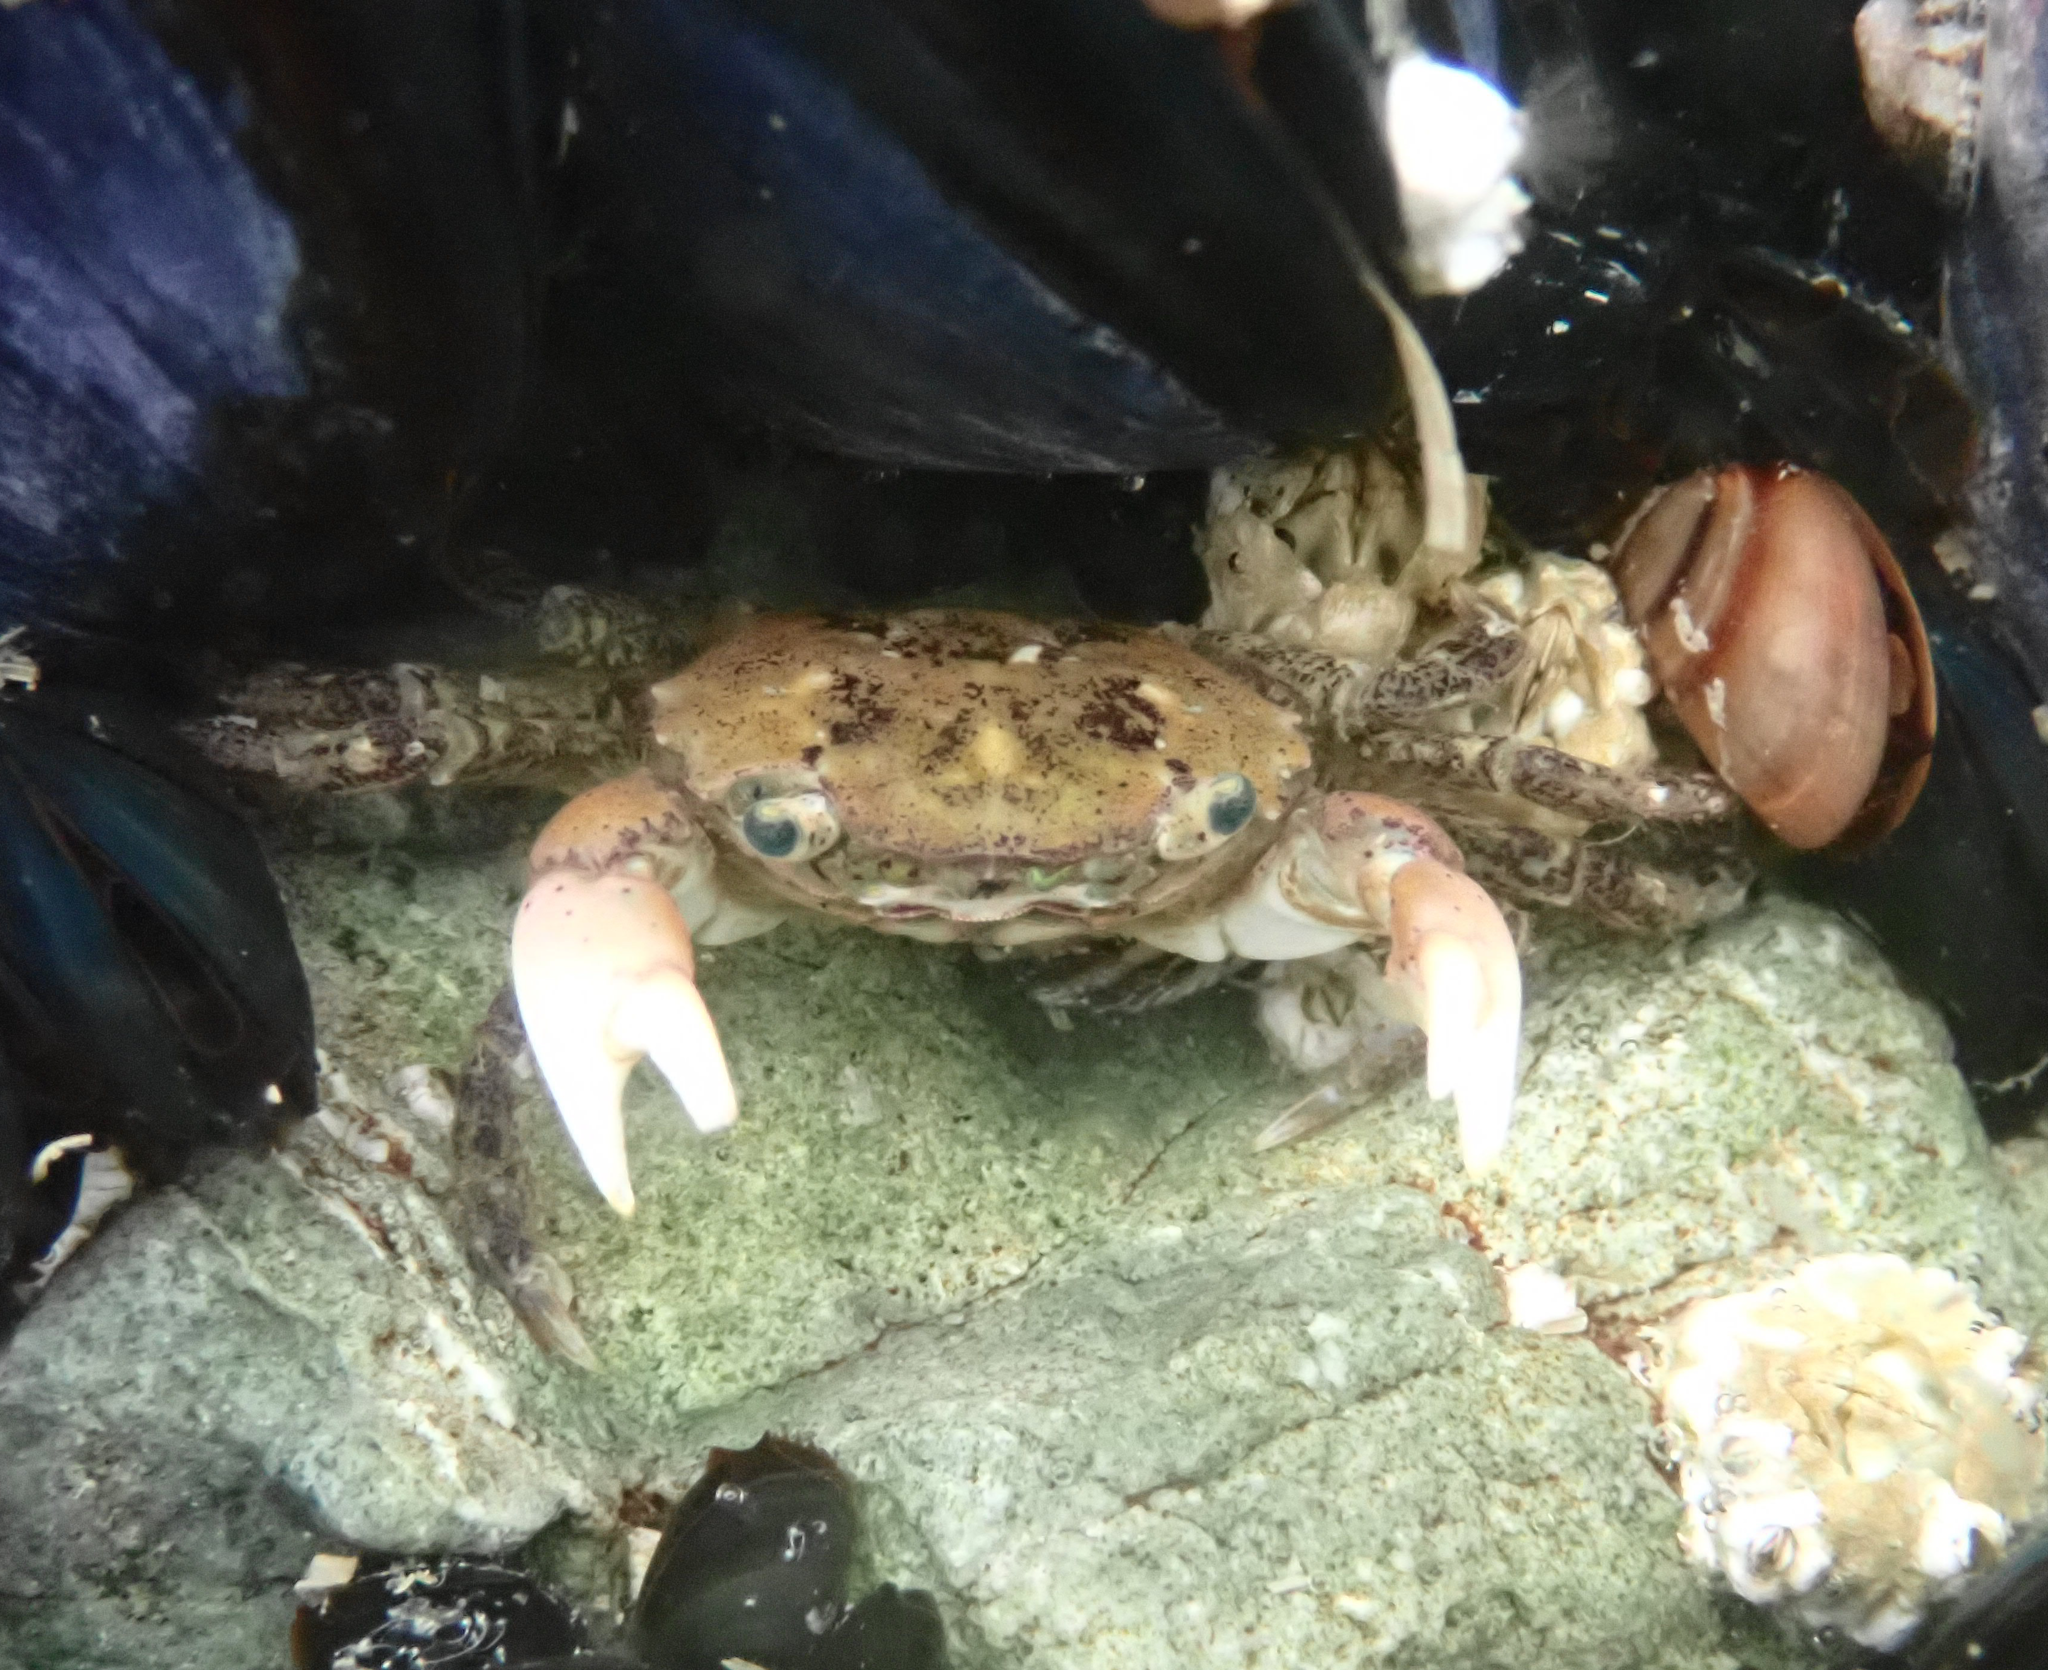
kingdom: Animalia
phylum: Arthropoda
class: Malacostraca
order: Decapoda
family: Varunidae
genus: Hemigrapsus
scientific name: Hemigrapsus oregonensis
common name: Yellow shore crab
